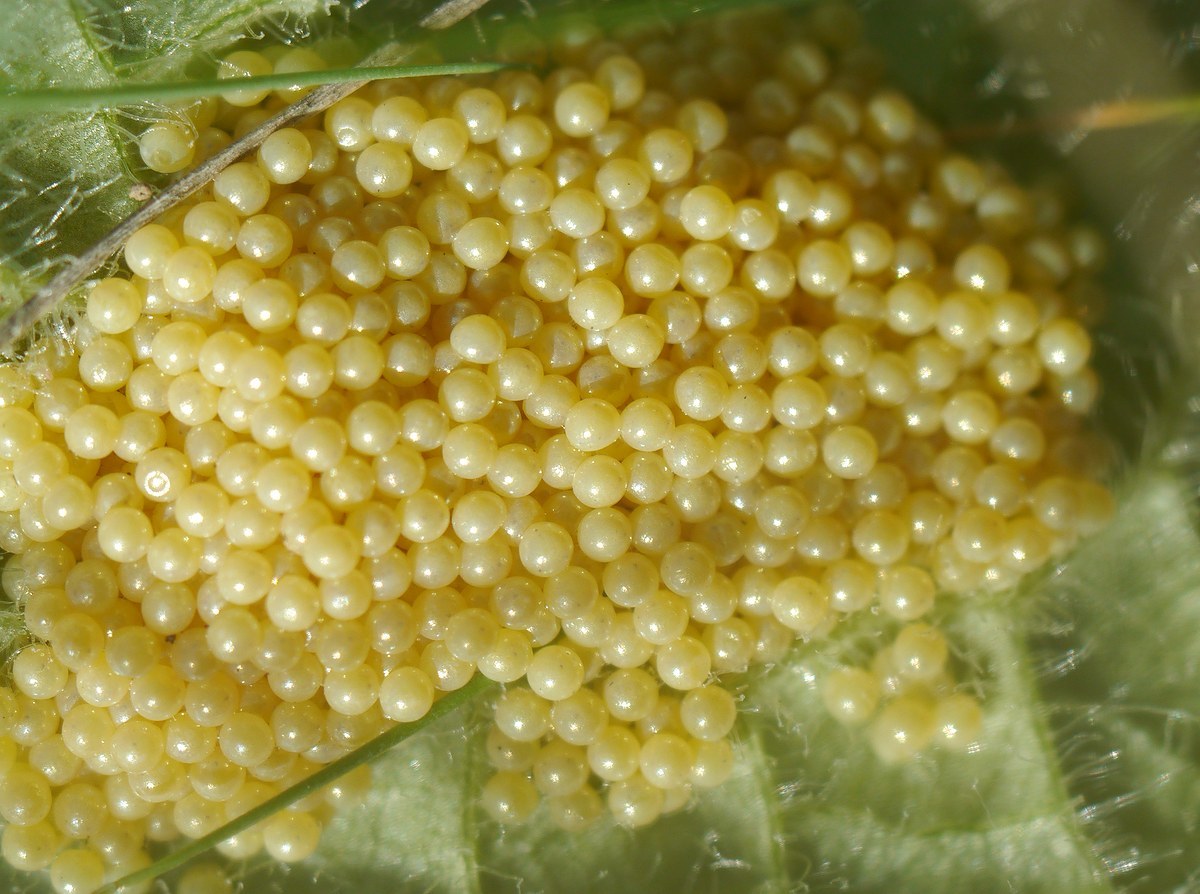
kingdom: Animalia
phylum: Arthropoda
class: Insecta
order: Lepidoptera
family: Erebidae
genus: Eucharia
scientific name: Eucharia festiva
